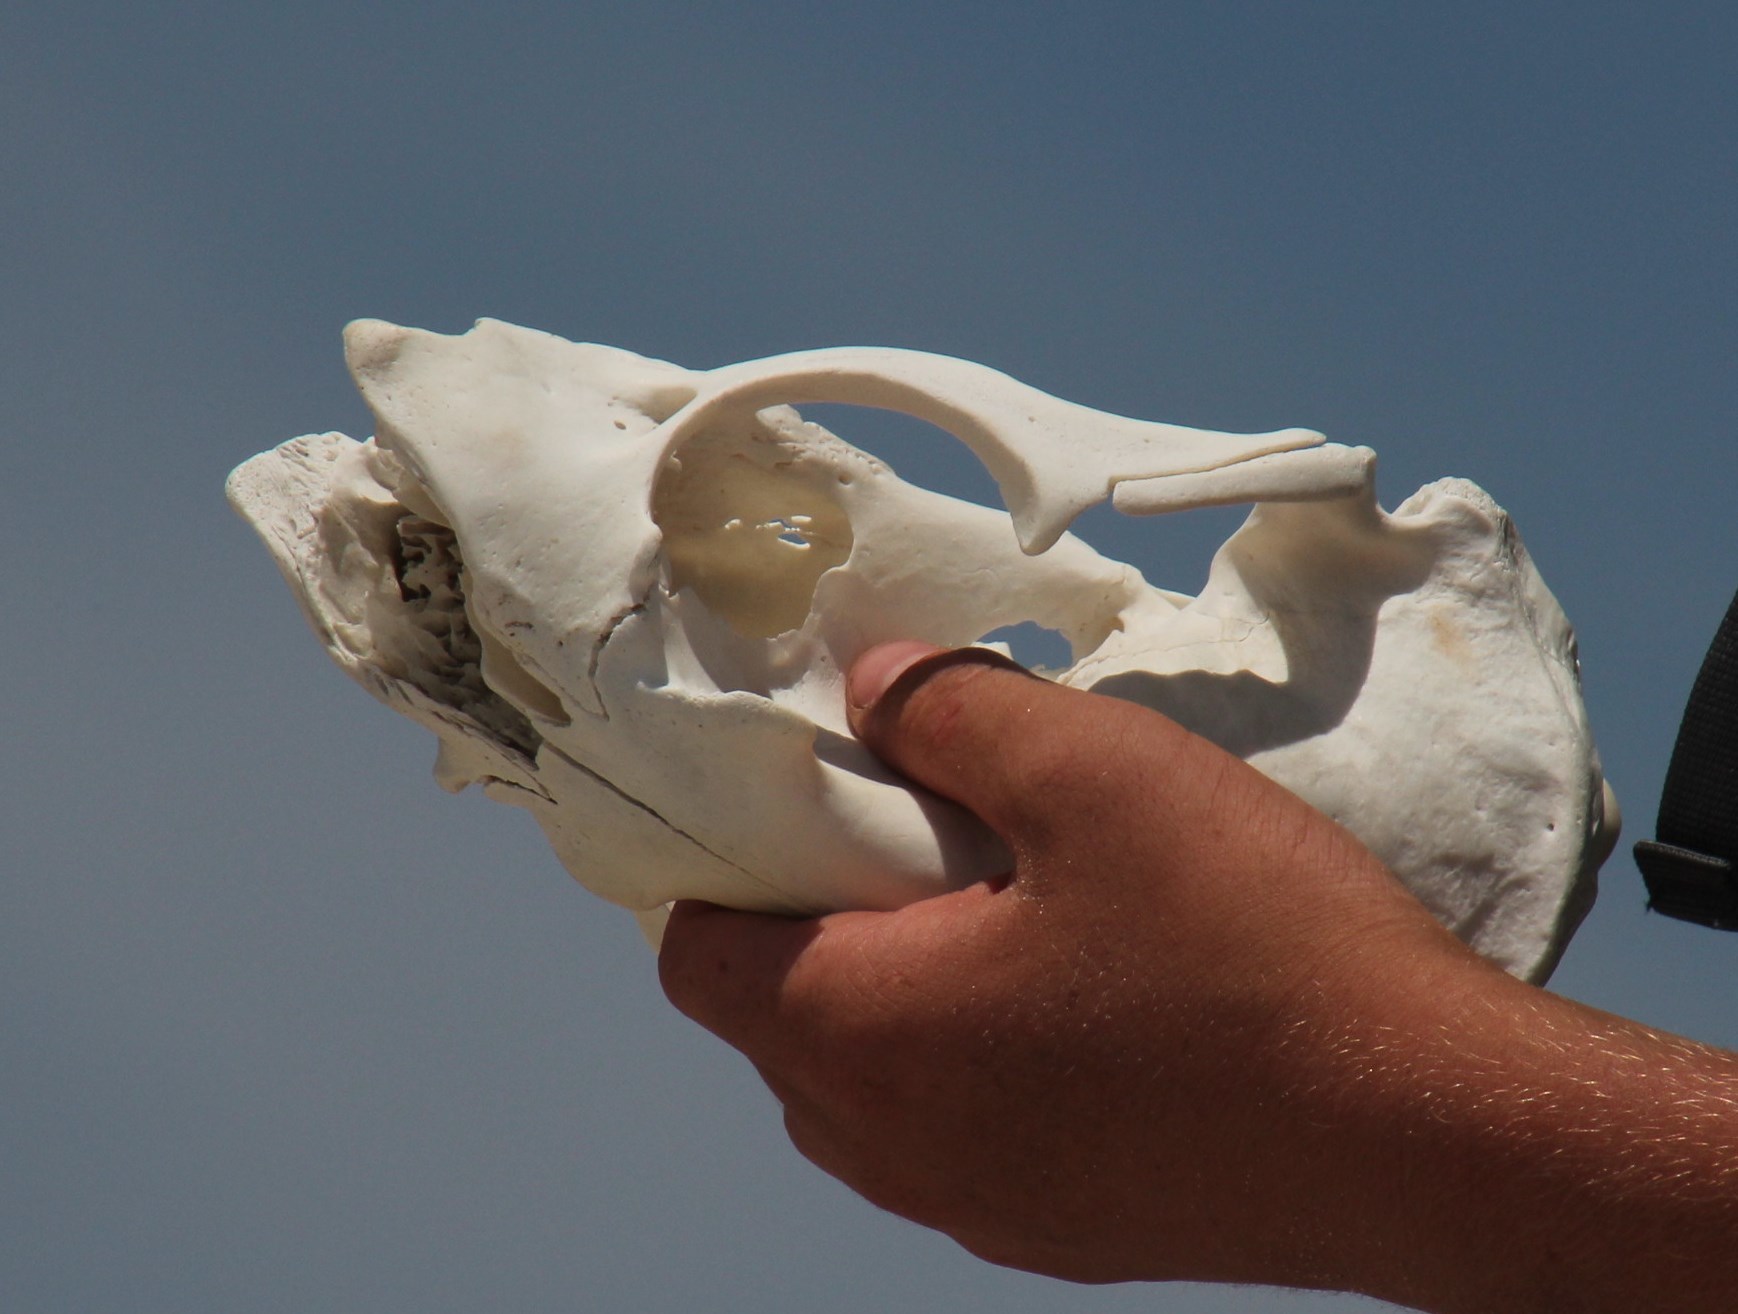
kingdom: Animalia
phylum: Chordata
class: Mammalia
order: Carnivora
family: Otariidae
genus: Arctocephalus
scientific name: Arctocephalus pusillus
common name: Brown fur seal
